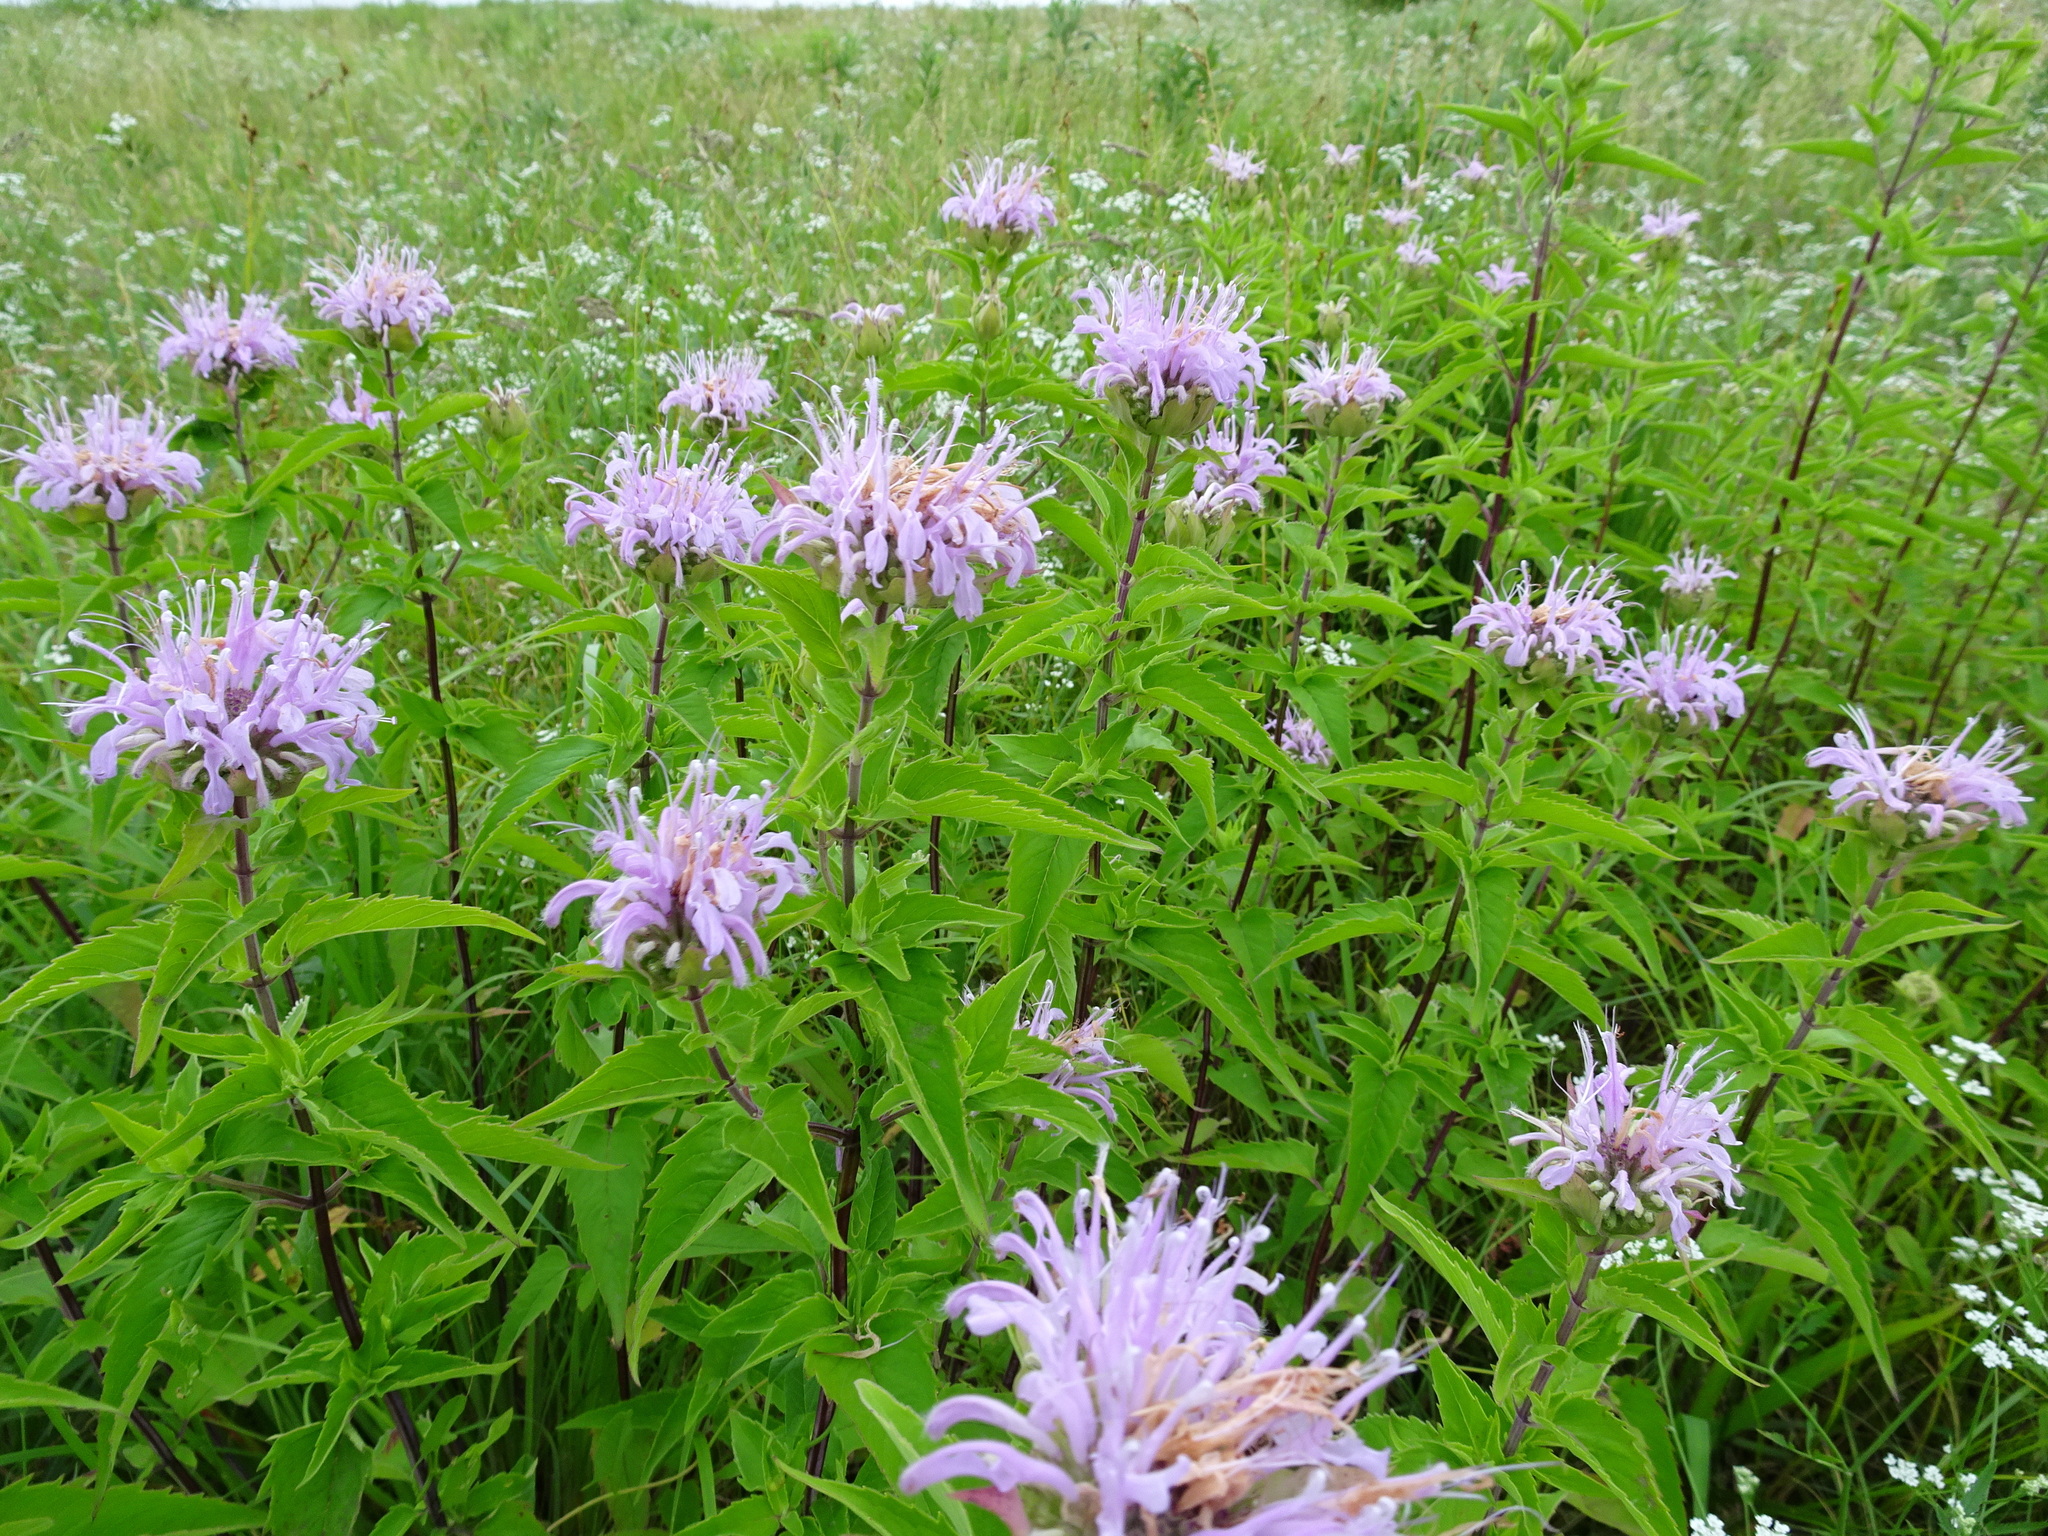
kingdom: Plantae
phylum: Tracheophyta
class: Magnoliopsida
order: Lamiales
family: Lamiaceae
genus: Monarda
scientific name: Monarda fistulosa
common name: Purple beebalm
